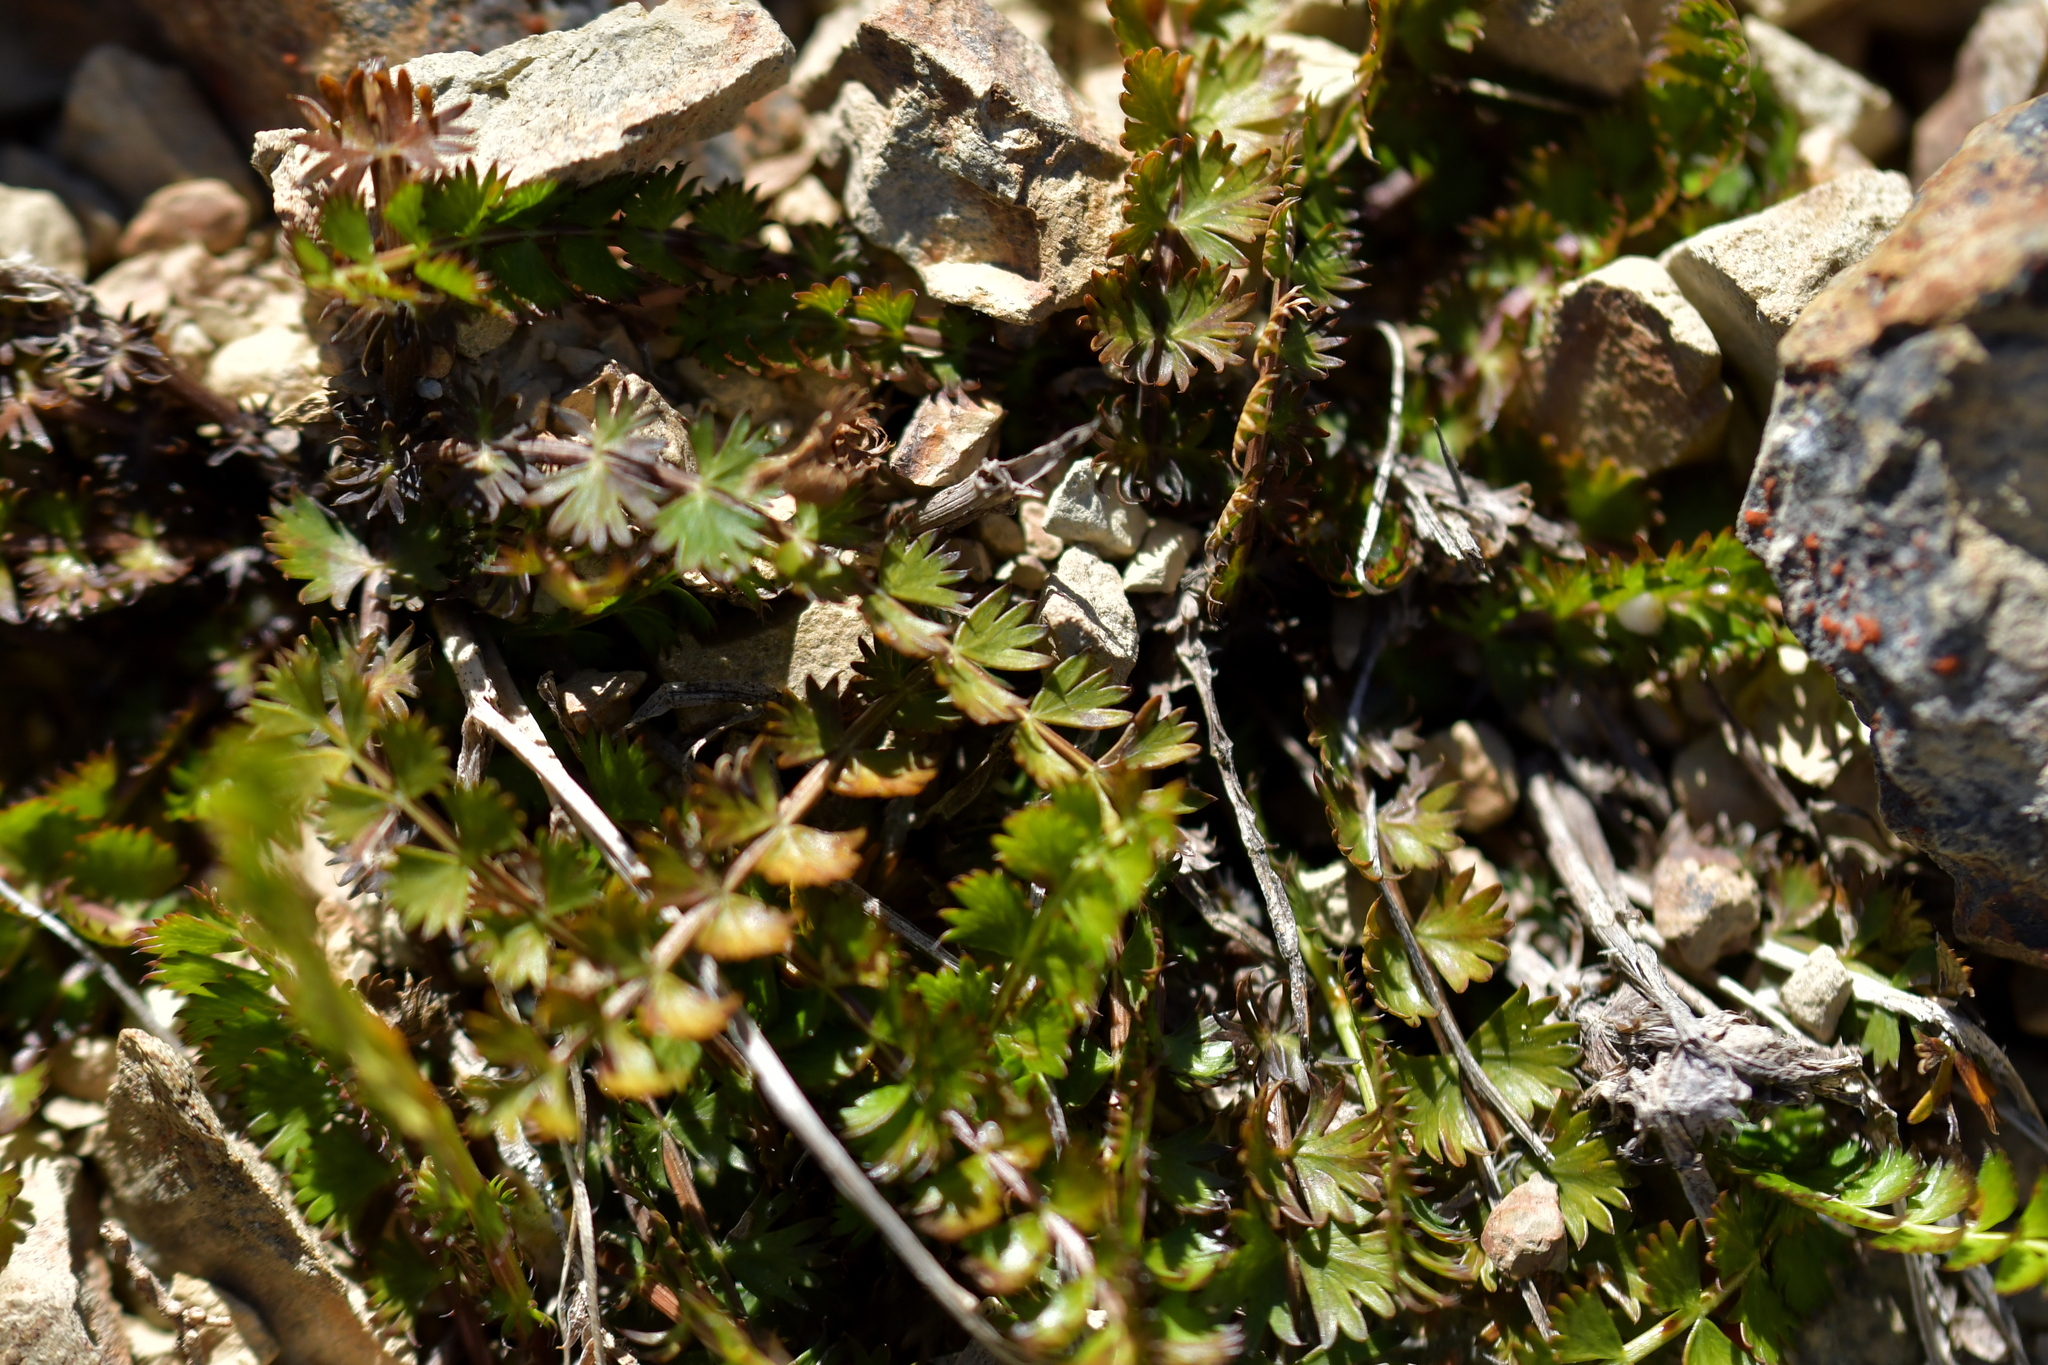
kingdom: Plantae
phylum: Tracheophyta
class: Magnoliopsida
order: Apiales
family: Apiaceae
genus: Anisotome
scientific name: Anisotome aromatica
